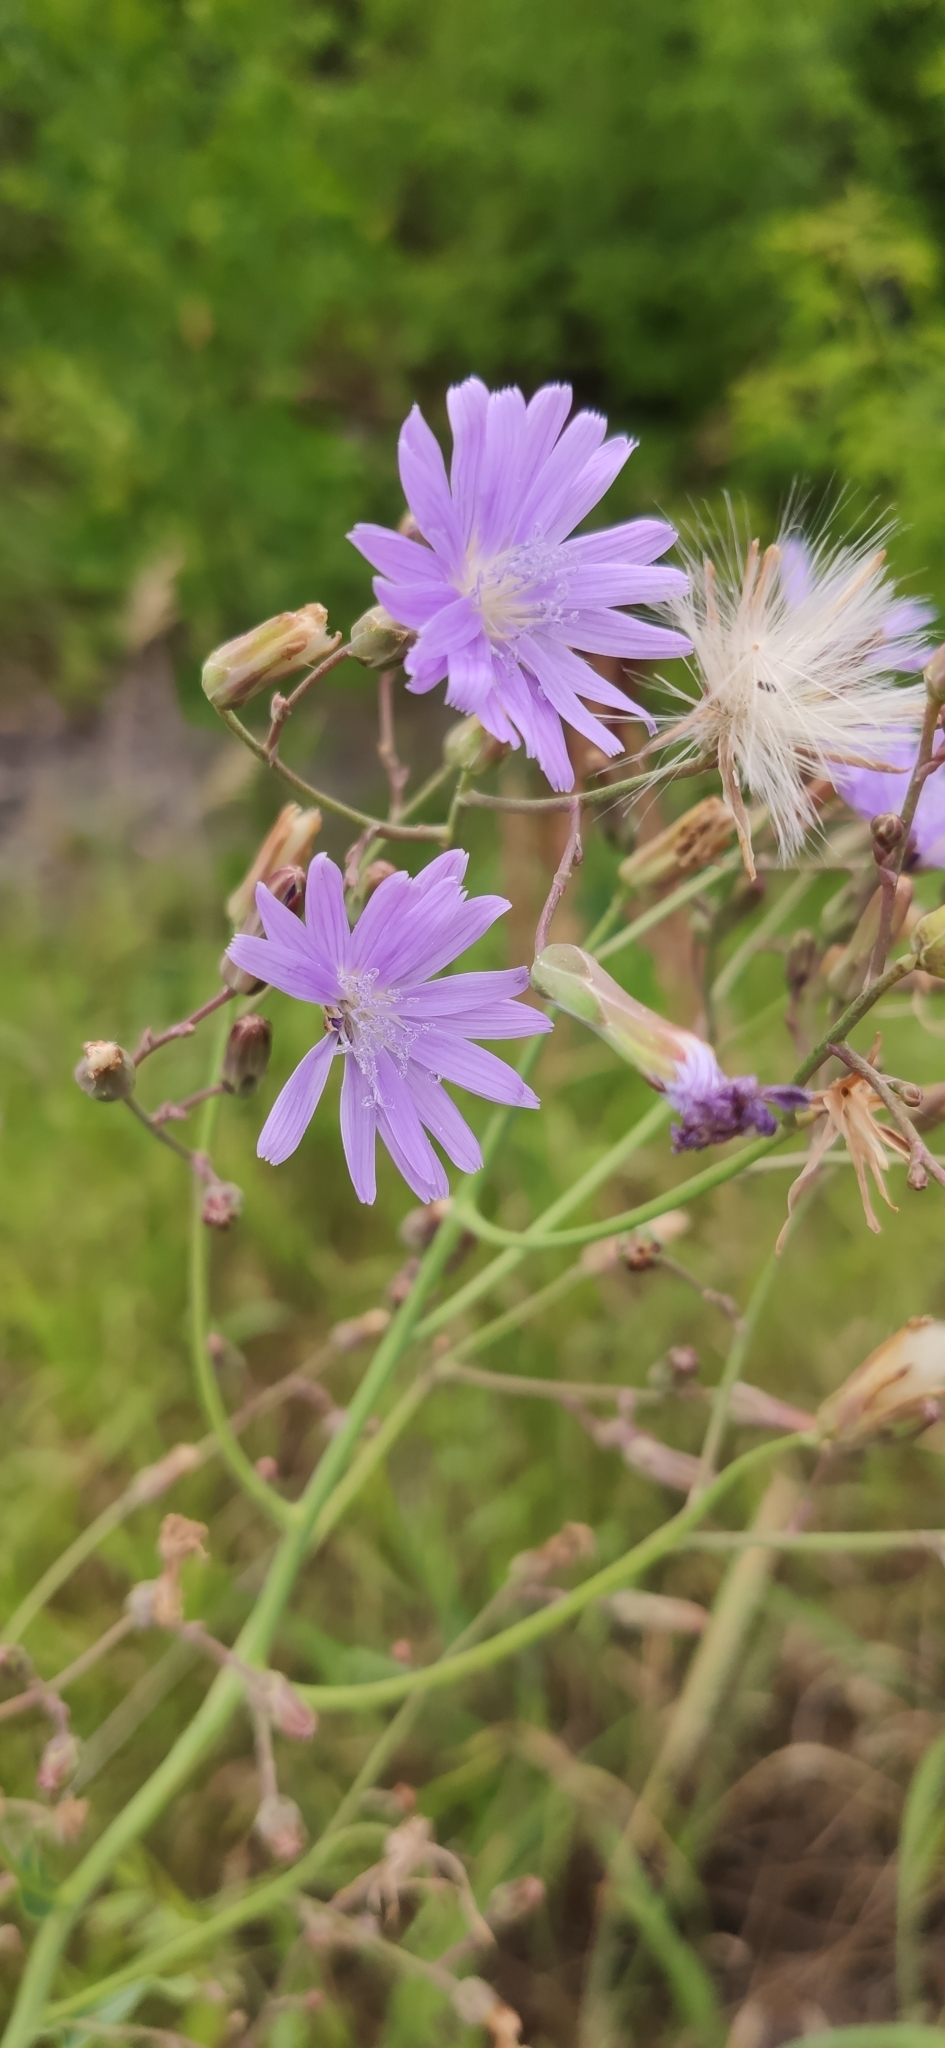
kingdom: Plantae
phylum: Tracheophyta
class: Magnoliopsida
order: Asterales
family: Asteraceae
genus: Lactuca
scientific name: Lactuca tatarica
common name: Blue lettuce
